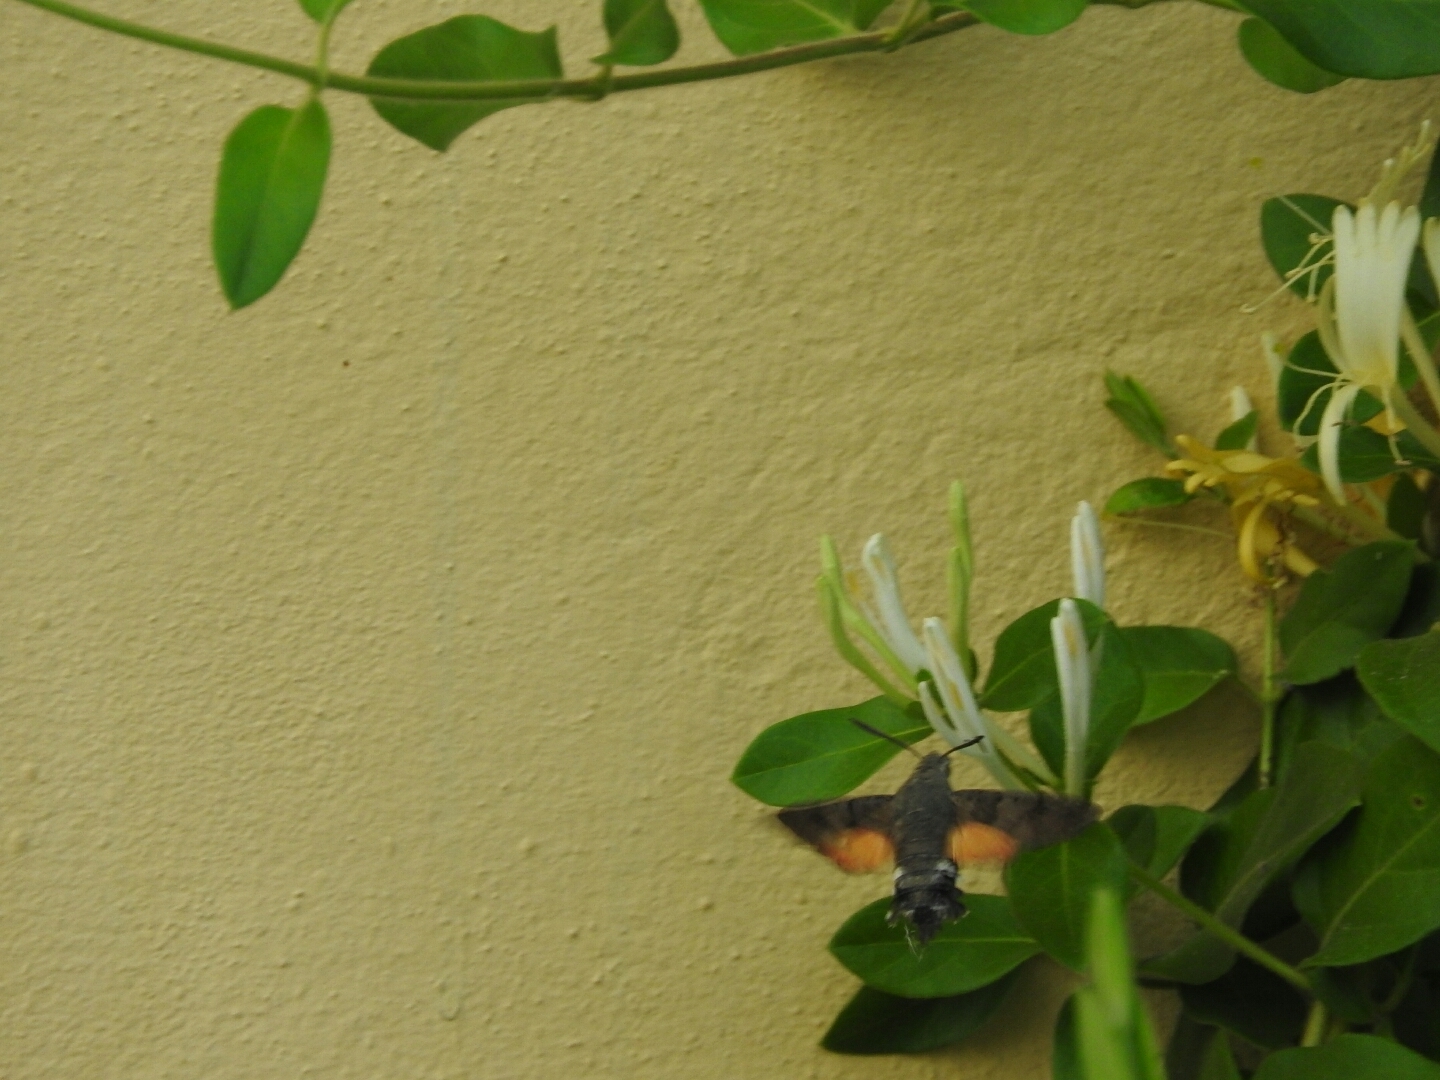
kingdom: Animalia
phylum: Arthropoda
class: Insecta
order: Lepidoptera
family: Sphingidae
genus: Macroglossum
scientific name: Macroglossum stellatarum
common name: Humming-bird hawk-moth
